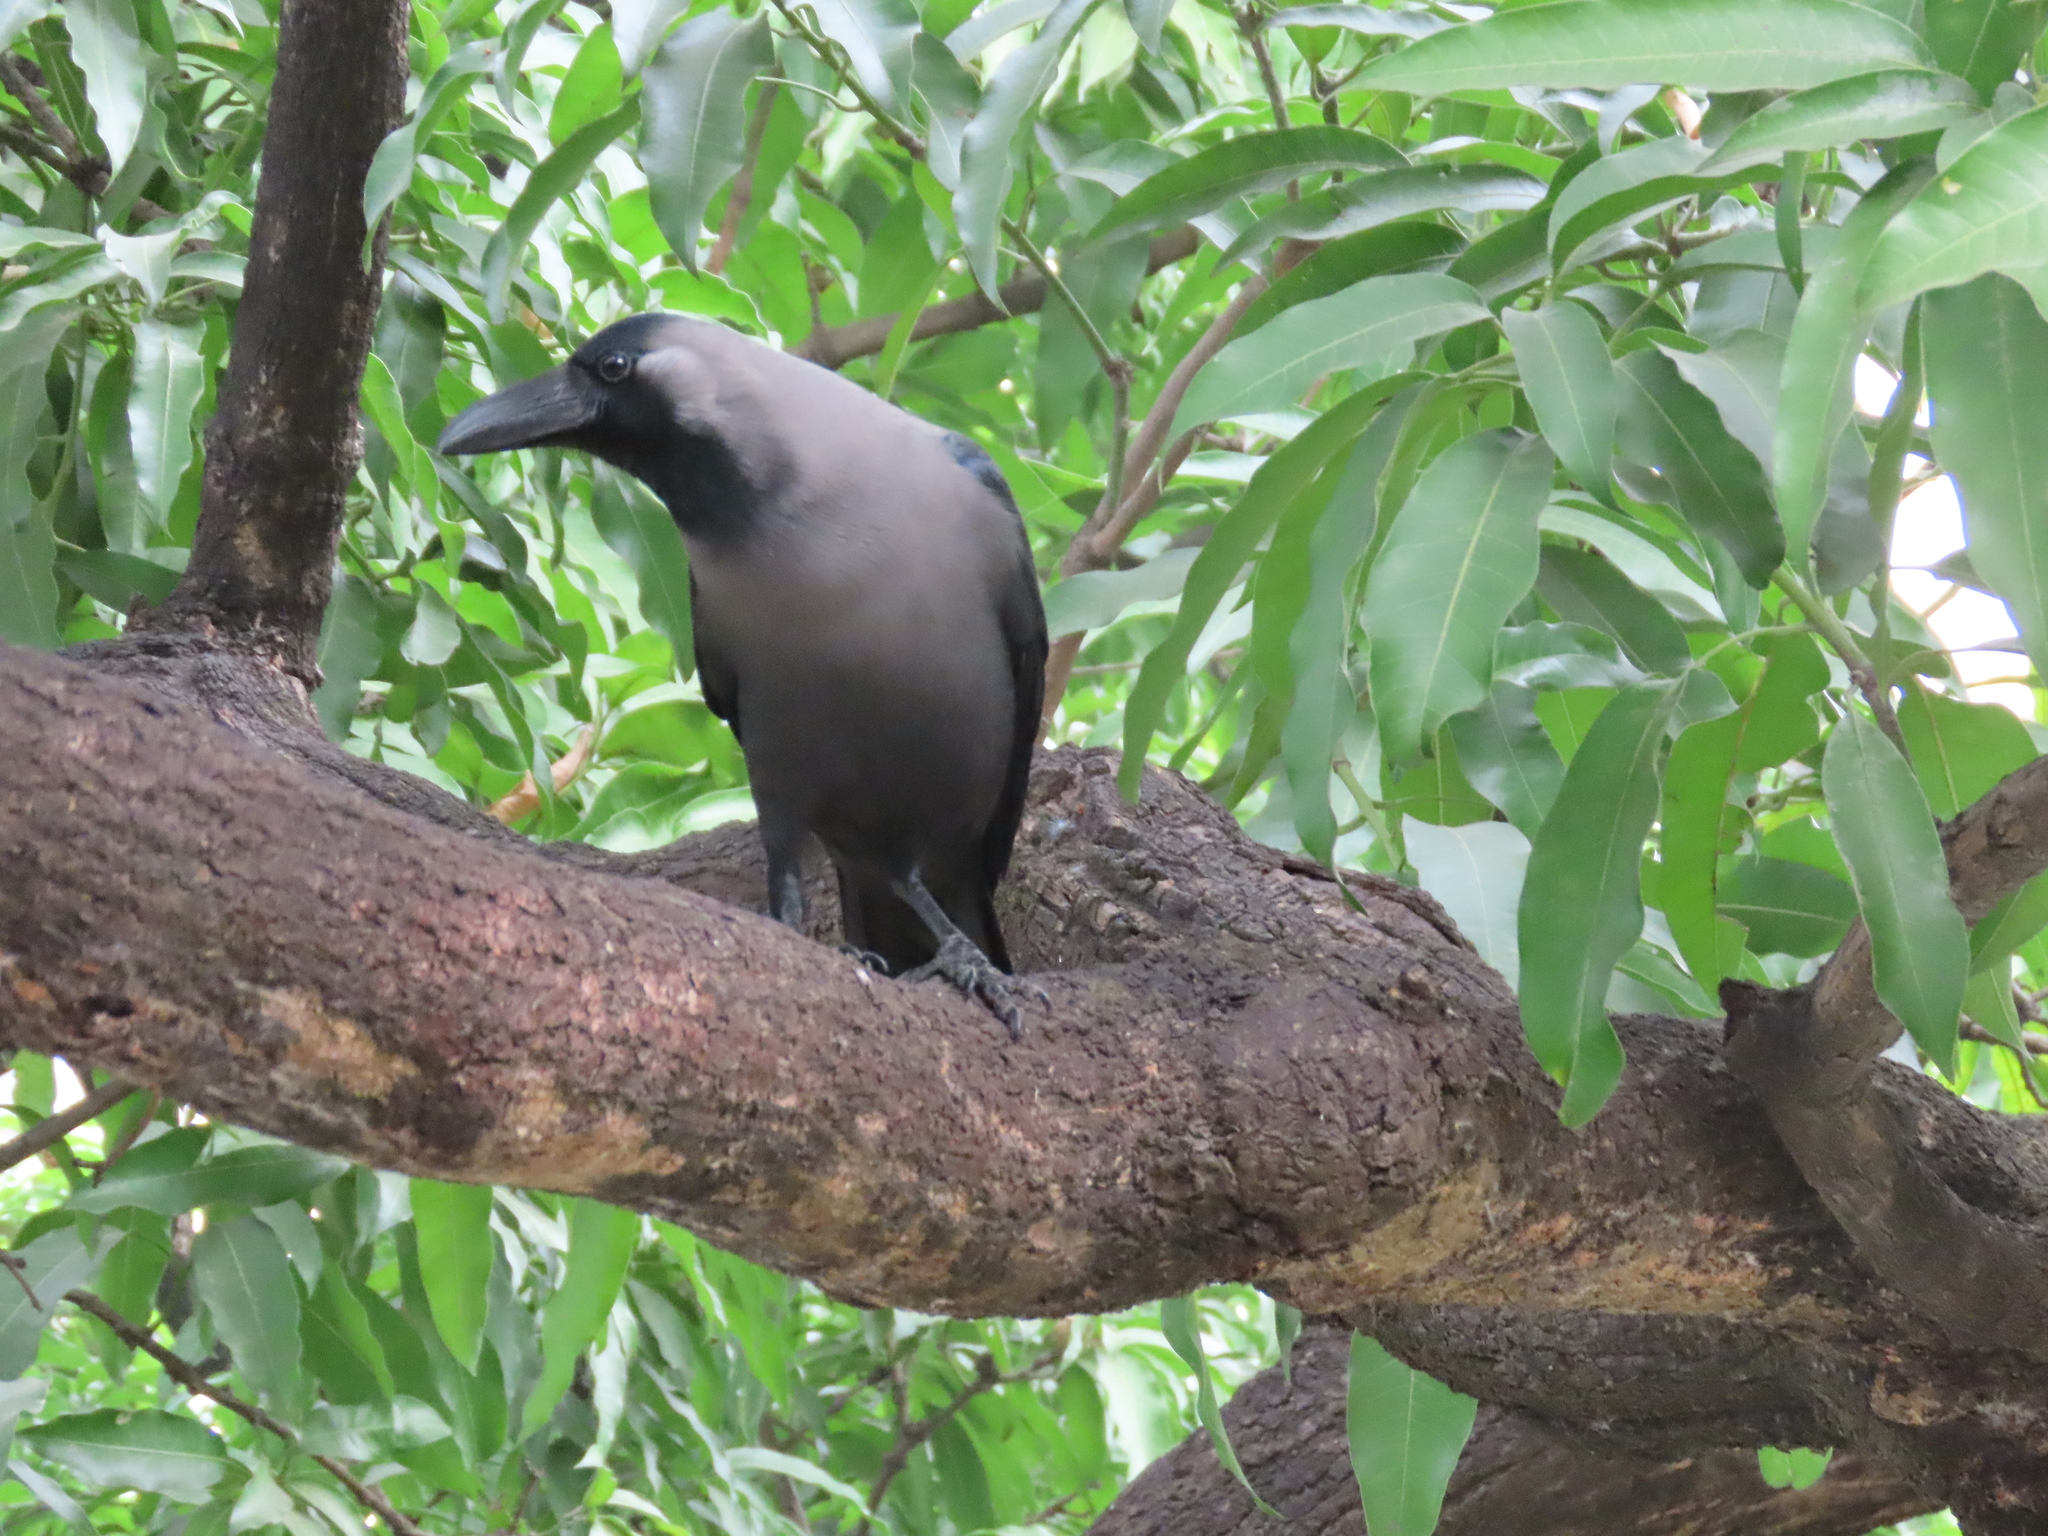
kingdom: Animalia
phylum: Chordata
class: Aves
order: Passeriformes
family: Corvidae
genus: Corvus
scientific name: Corvus splendens
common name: House crow
